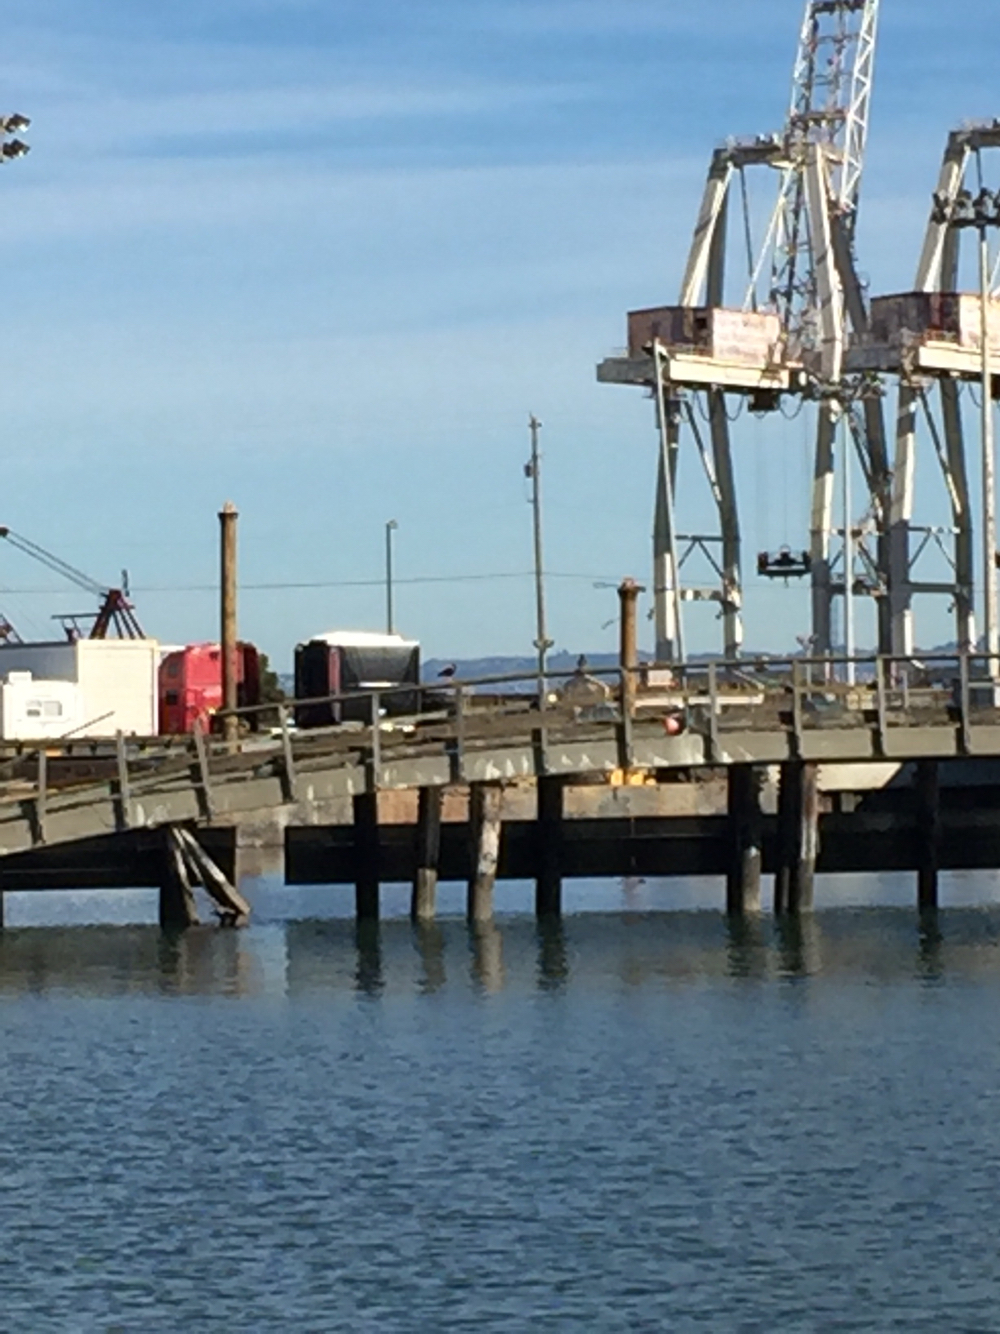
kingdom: Animalia
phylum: Chordata
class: Aves
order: Charadriiformes
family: Haematopodidae
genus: Haematopus
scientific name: Haematopus bachmani
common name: Black oystercatcher
